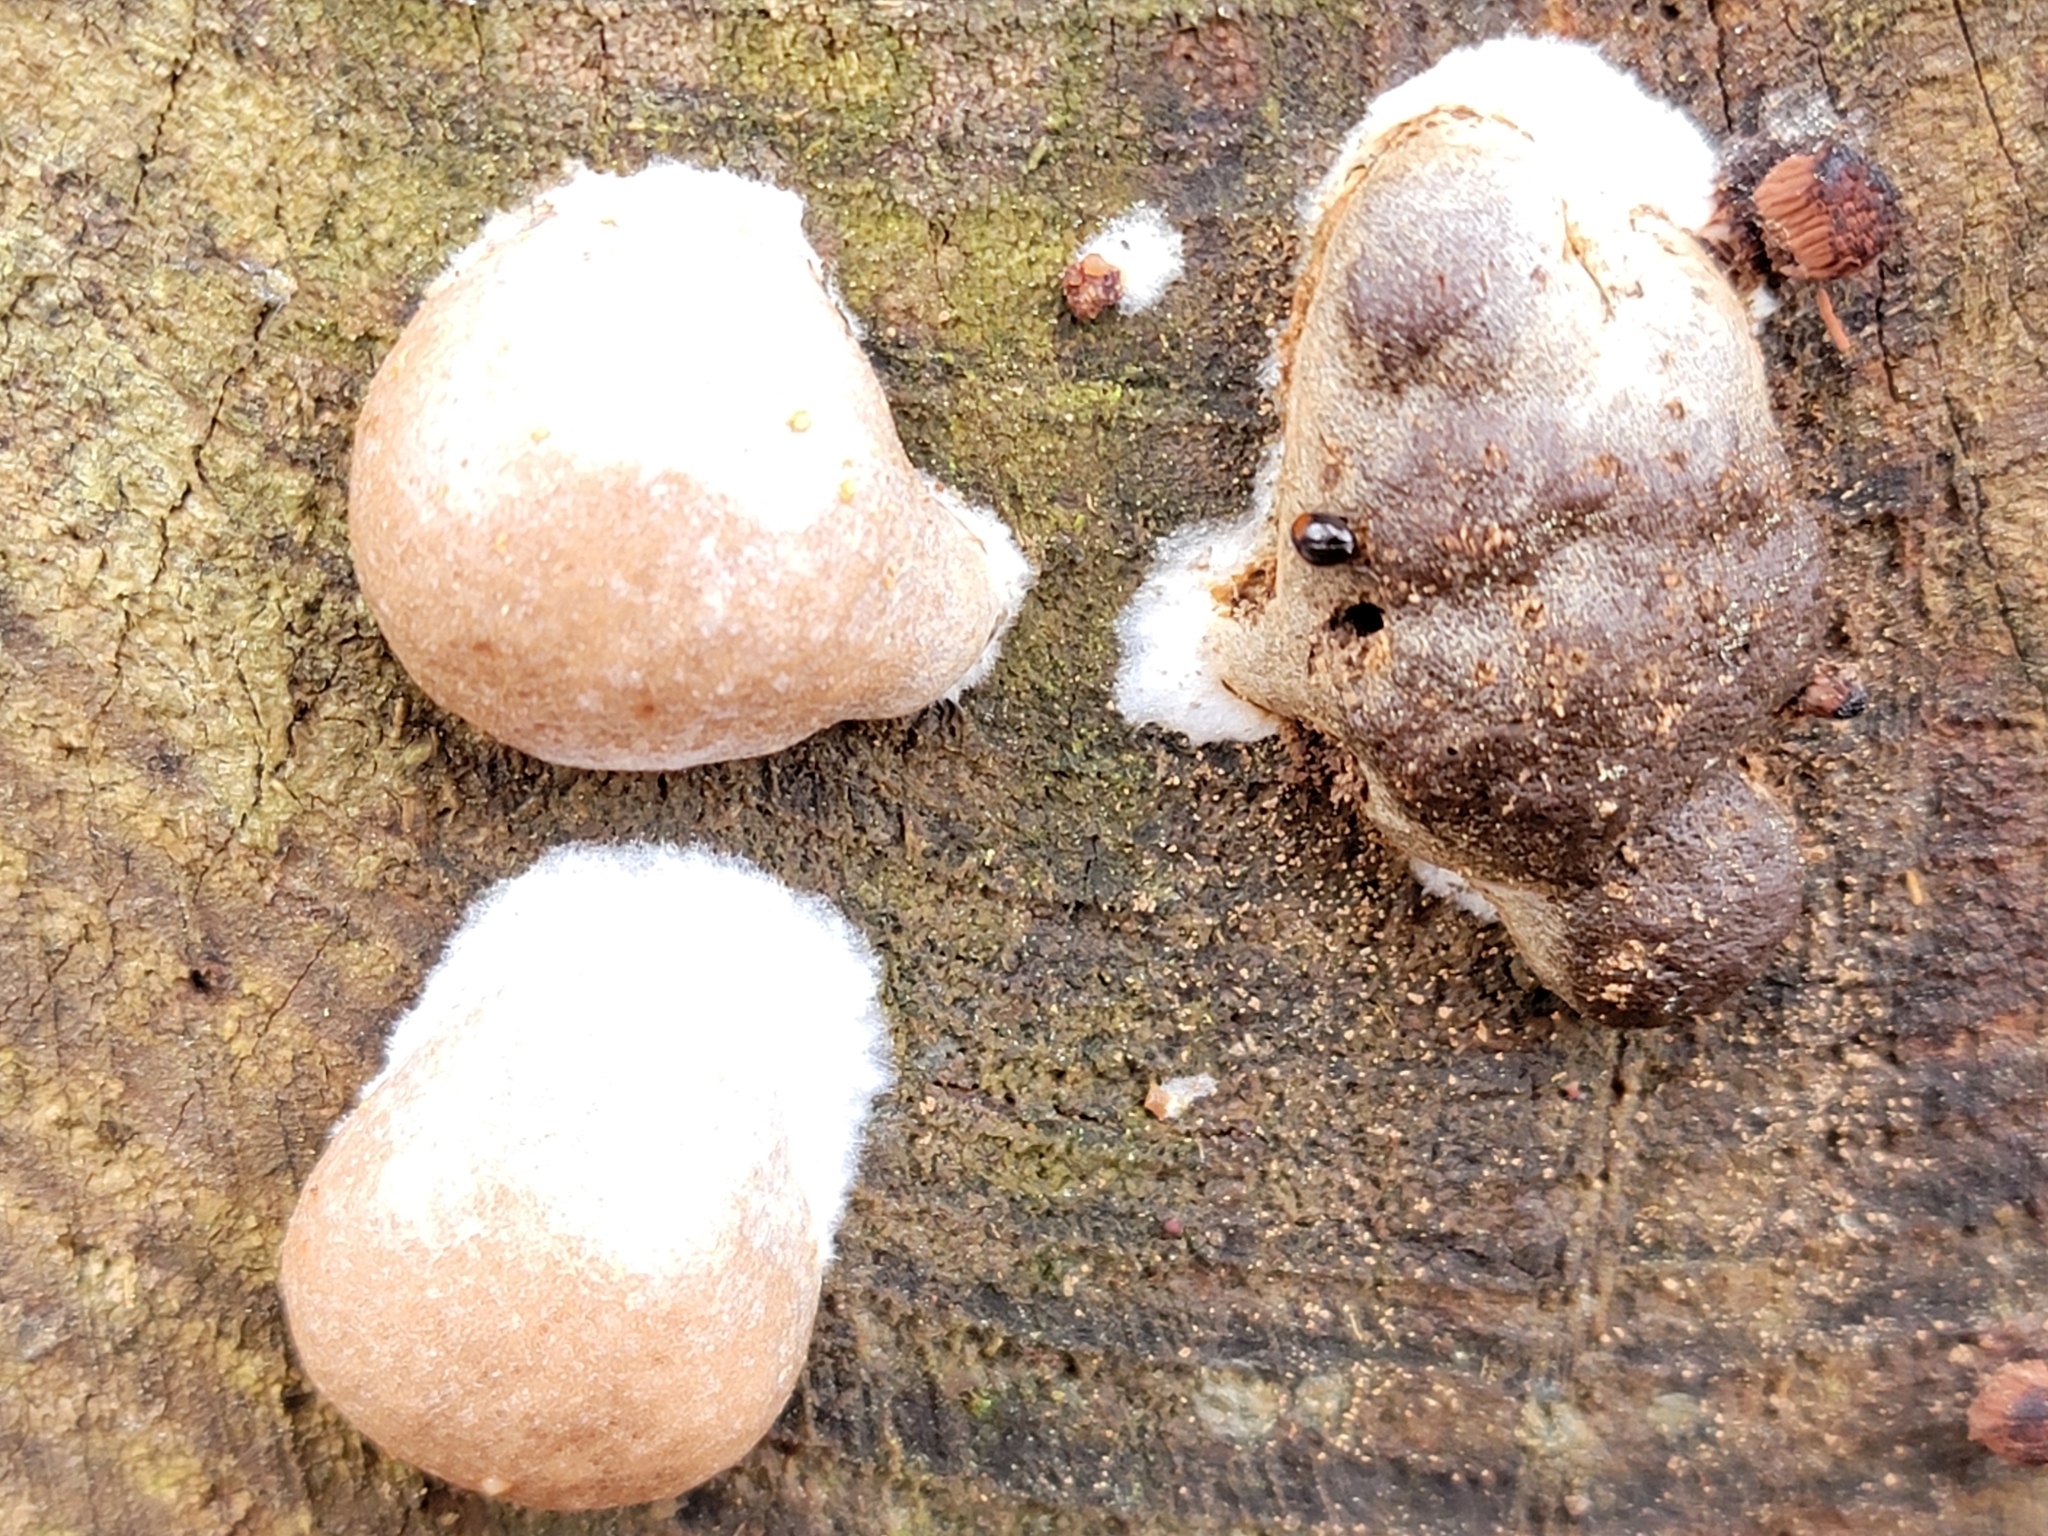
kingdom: Protozoa
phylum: Mycetozoa
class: Myxomycetes
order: Cribrariales
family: Tubiferaceae
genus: Reticularia
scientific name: Reticularia lycoperdon
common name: False puffball
